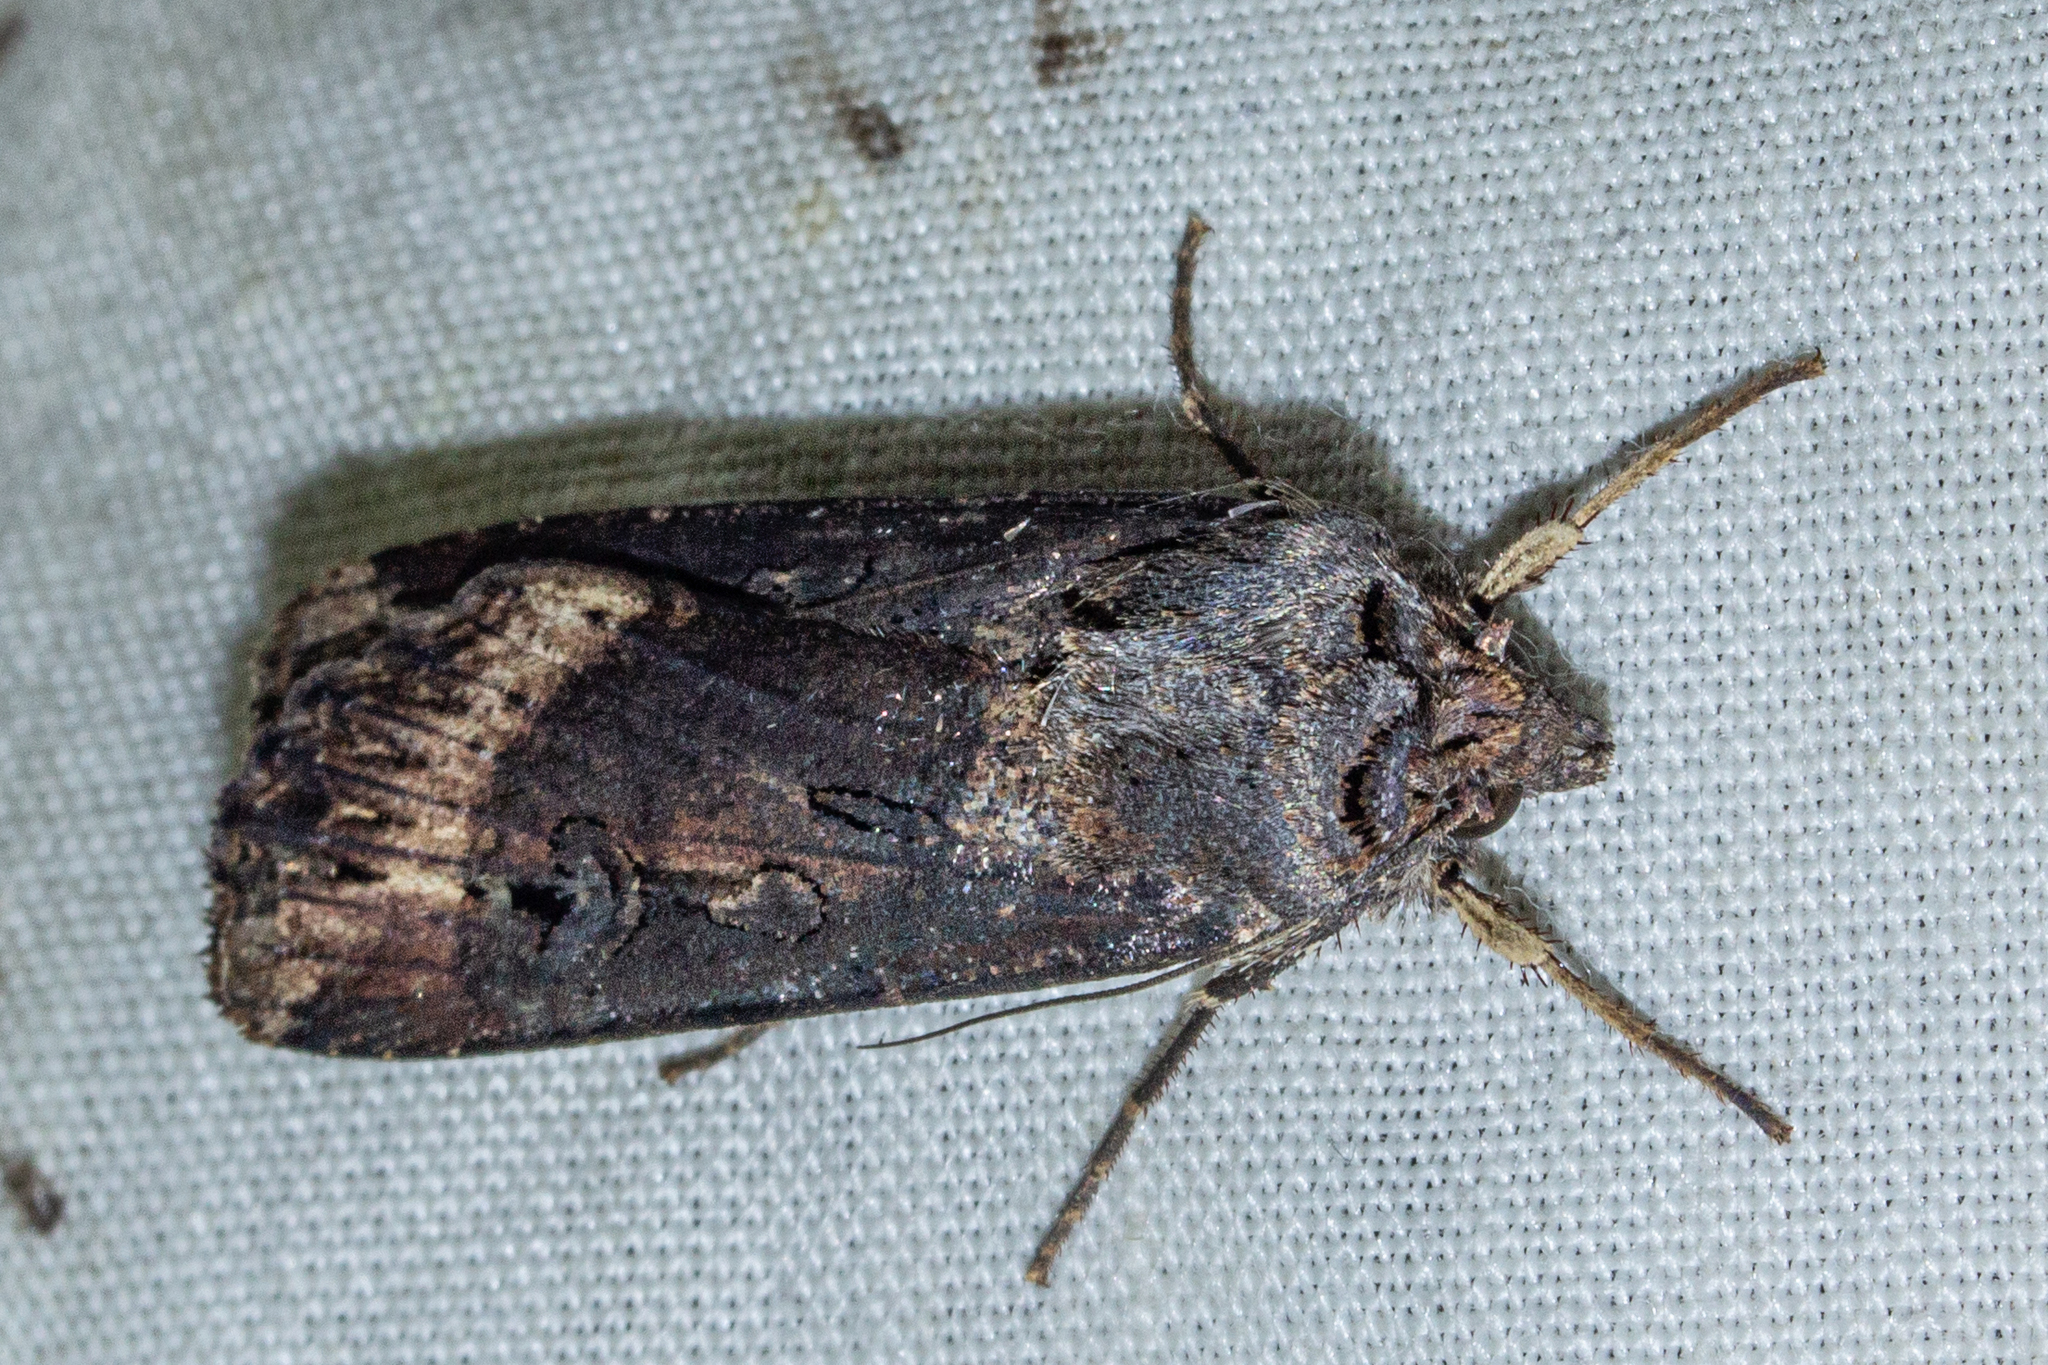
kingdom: Animalia
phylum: Arthropoda
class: Insecta
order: Lepidoptera
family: Noctuidae
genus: Agrotis
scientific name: Agrotis ipsilon
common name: Dark sword-grass
